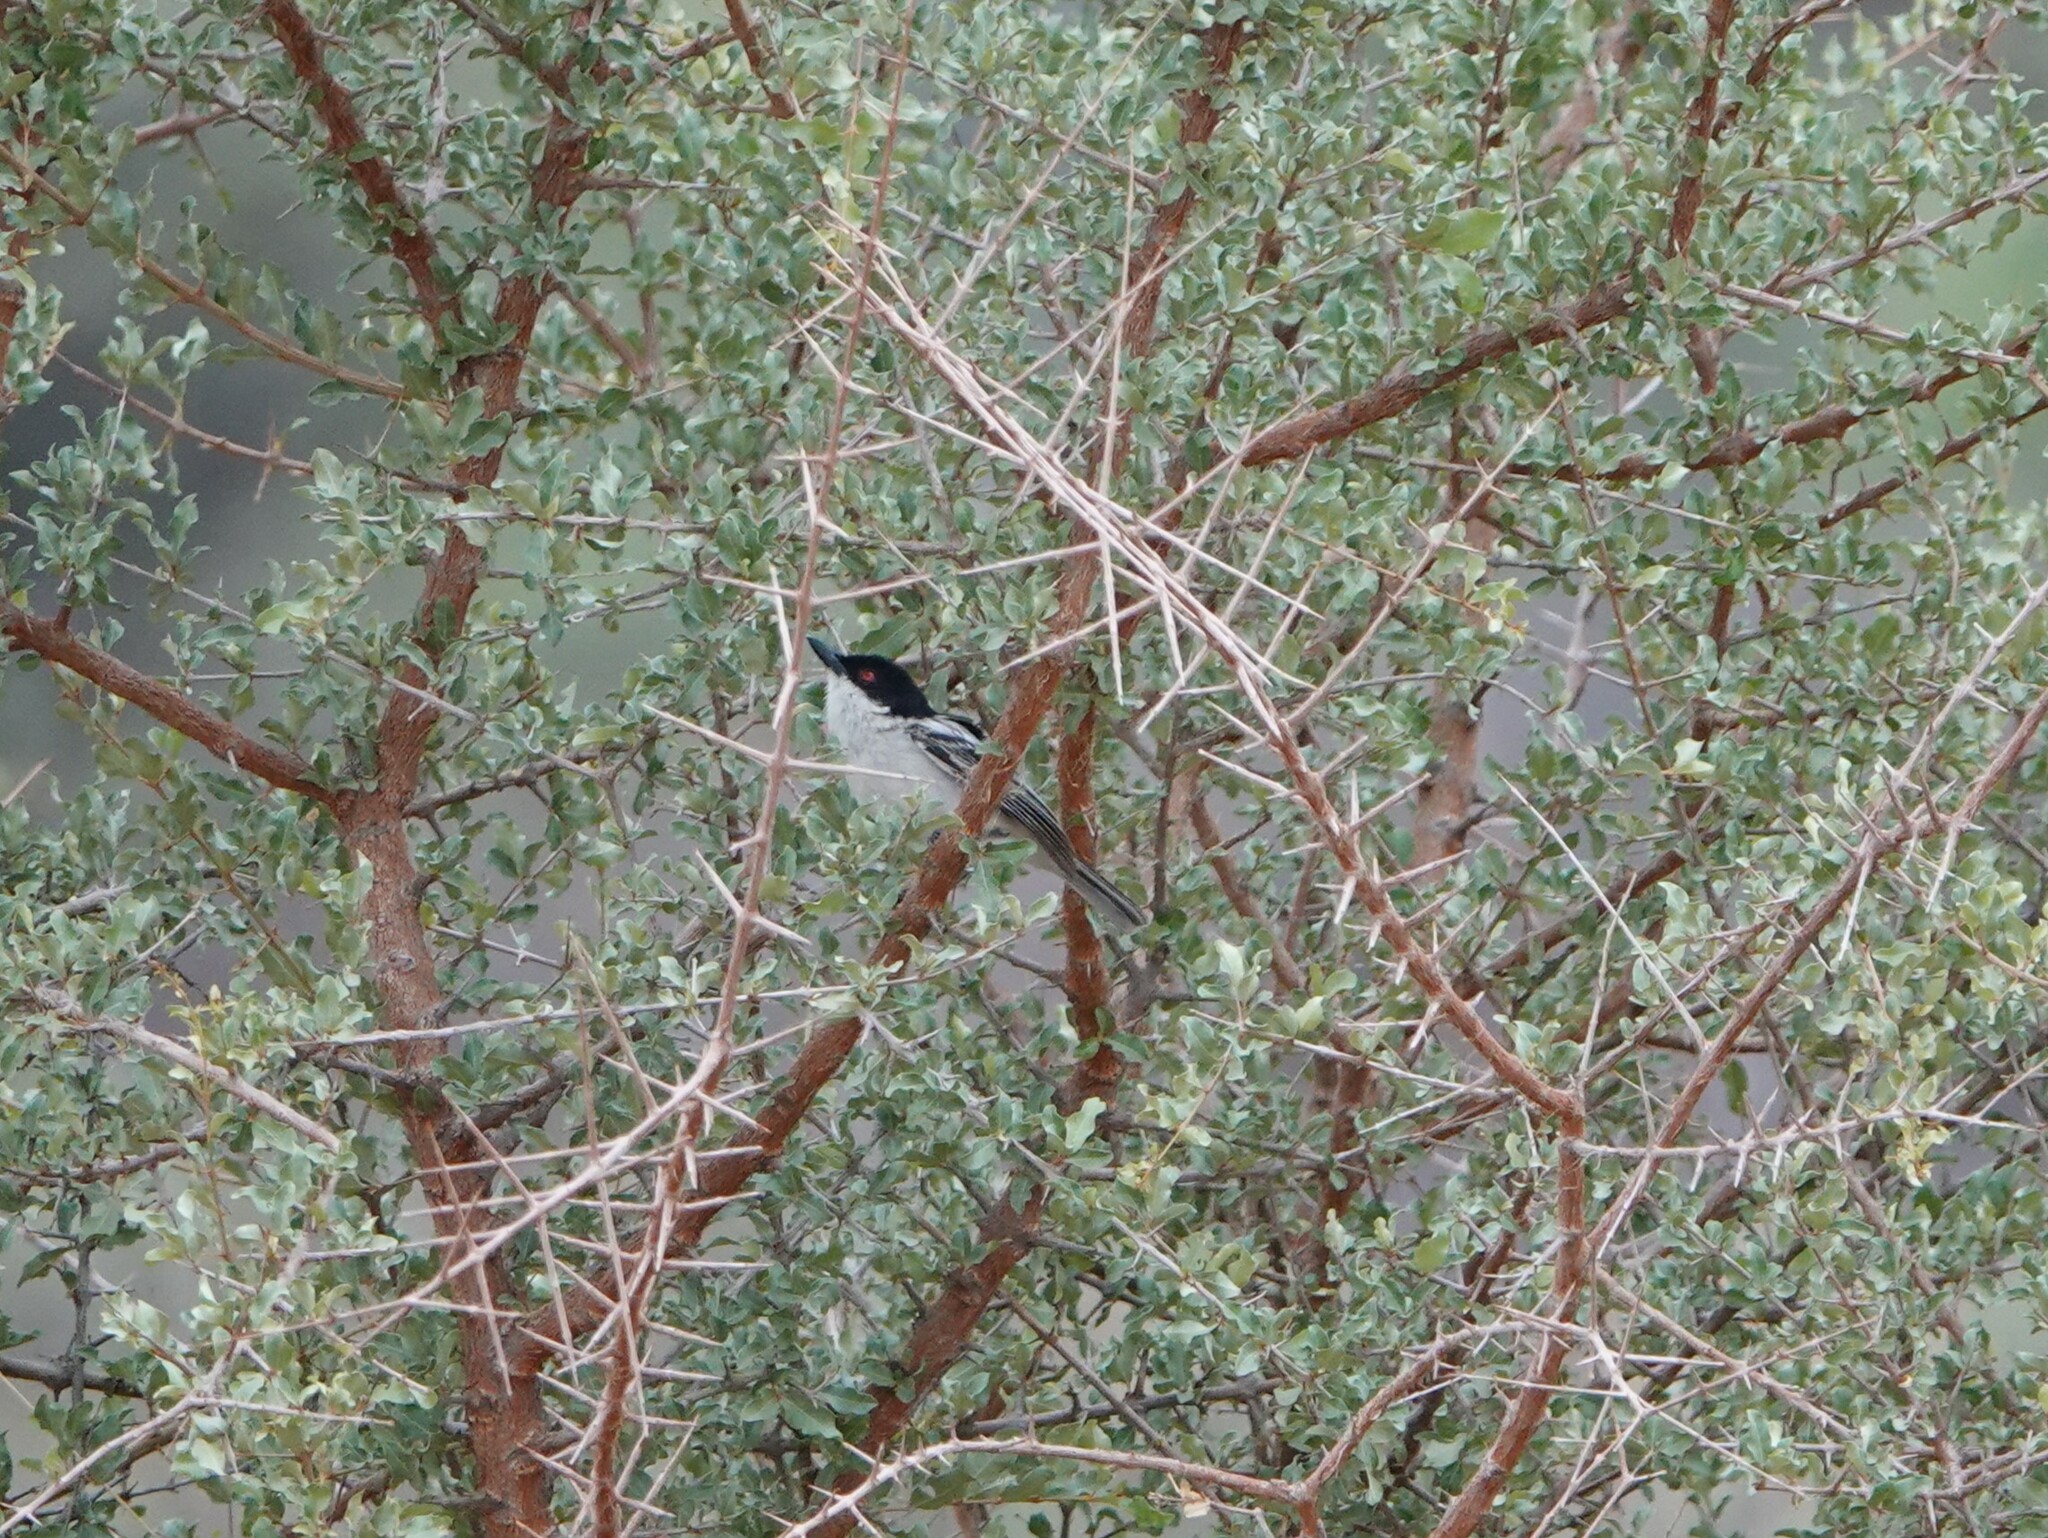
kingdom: Animalia
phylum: Chordata
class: Aves
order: Passeriformes
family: Malaconotidae
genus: Dryoscopus
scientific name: Dryoscopus cubla
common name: Black-backed puffback
